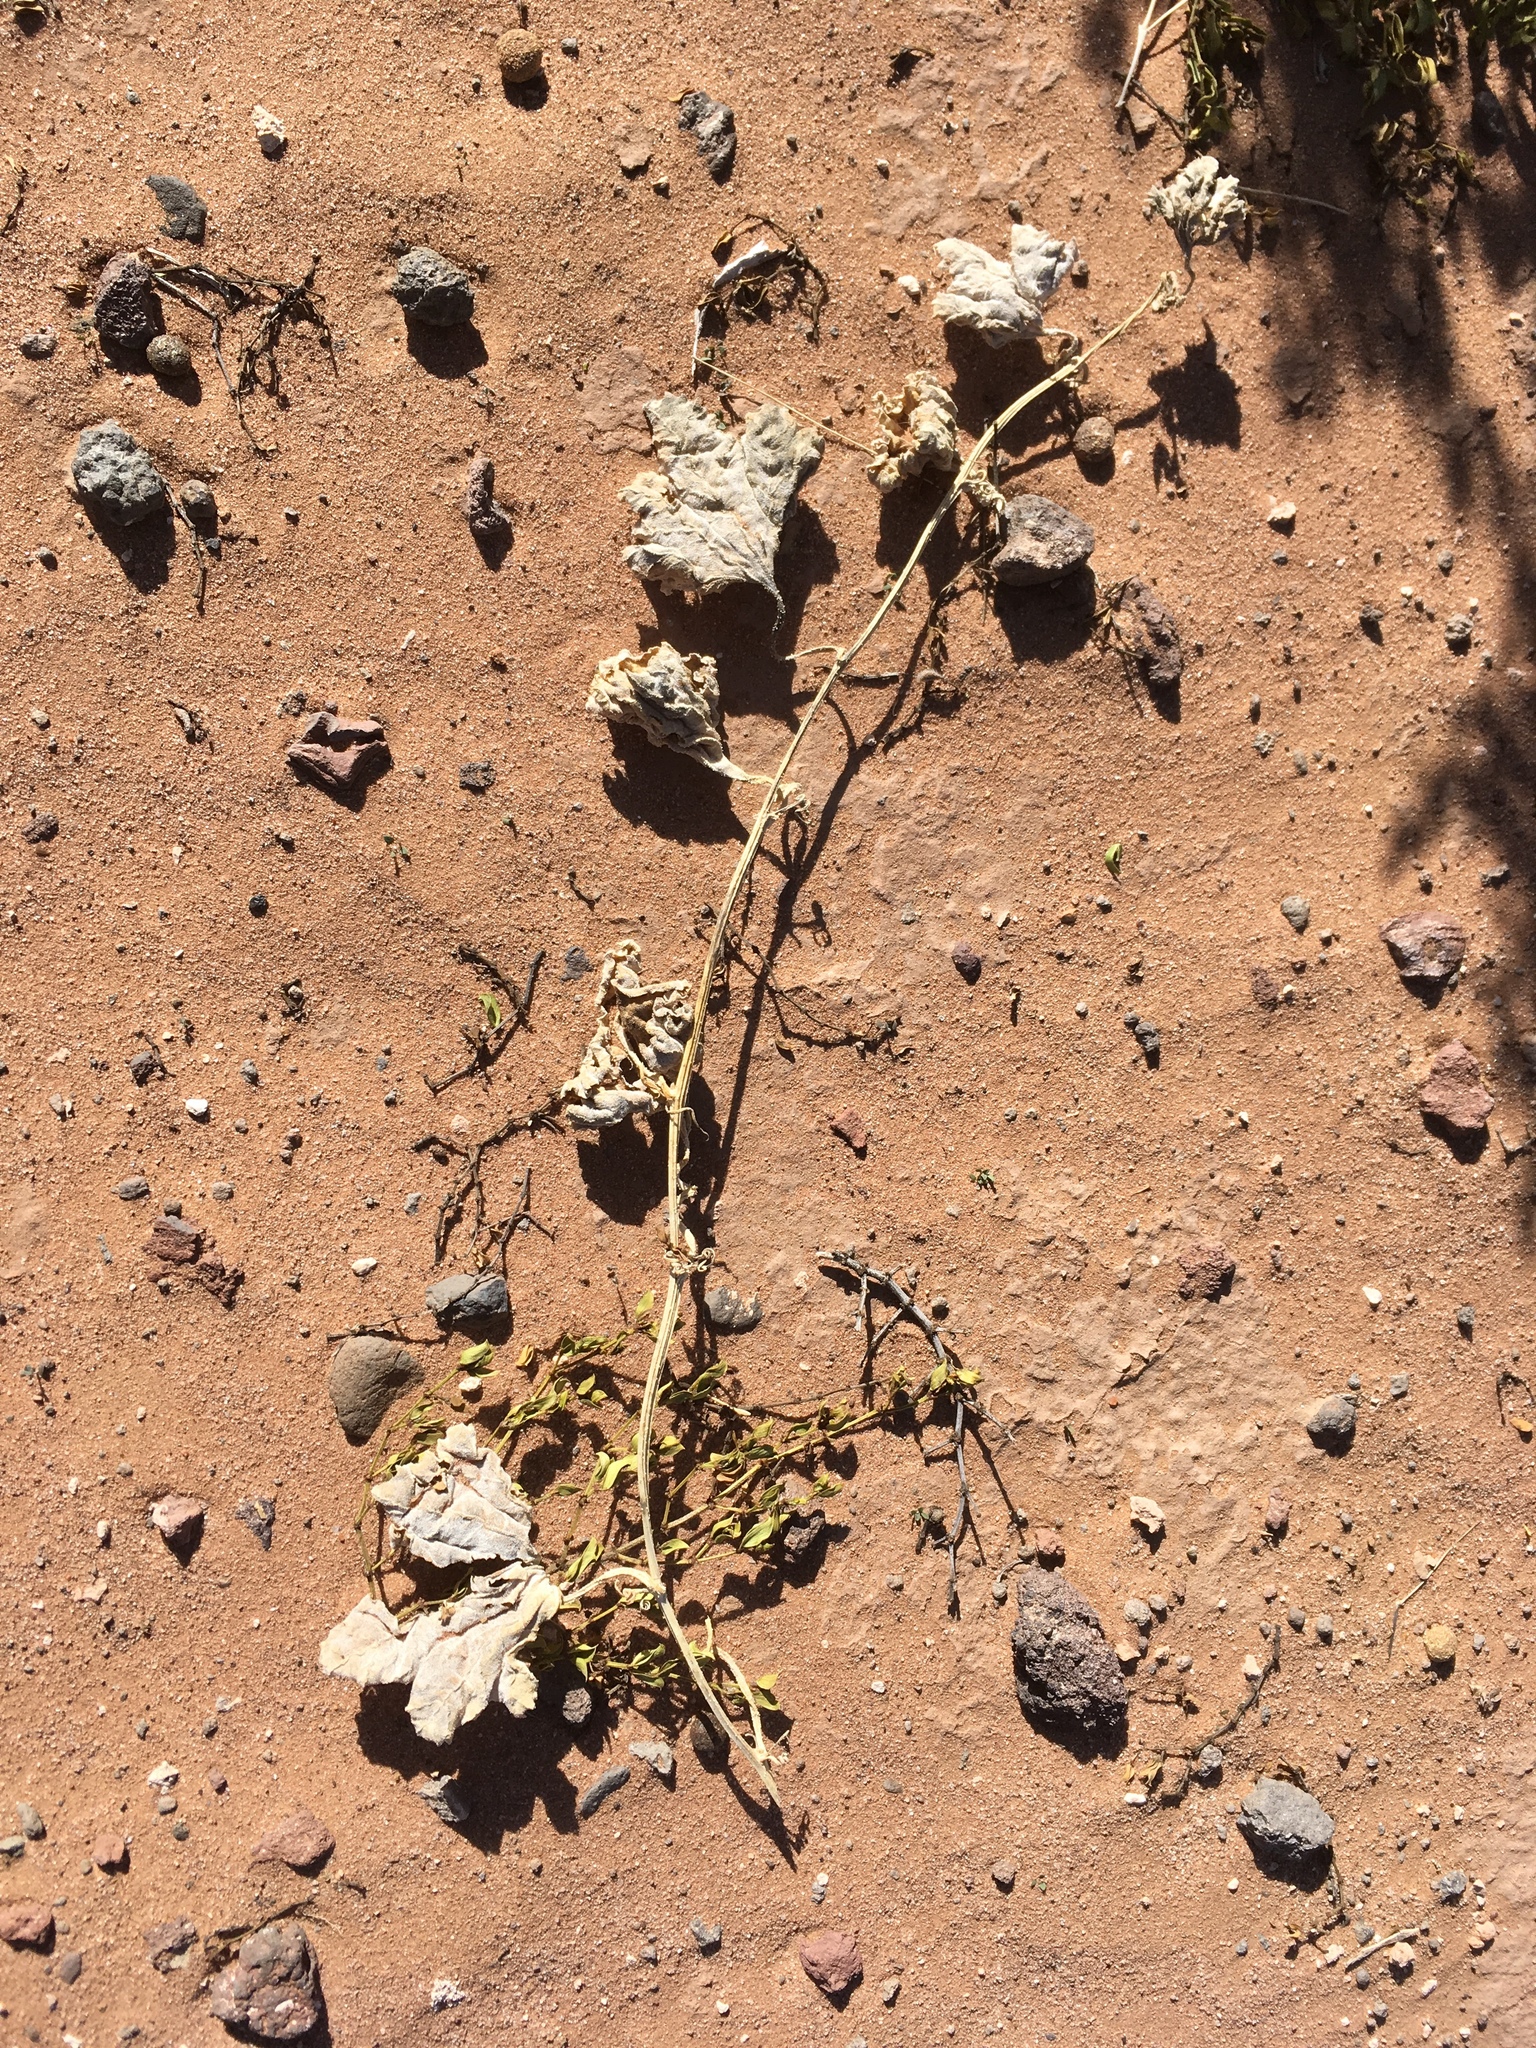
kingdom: Plantae
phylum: Tracheophyta
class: Magnoliopsida
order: Cucurbitales
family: Cucurbitaceae
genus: Apodanthera
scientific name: Apodanthera undulata
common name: Melon-loco
